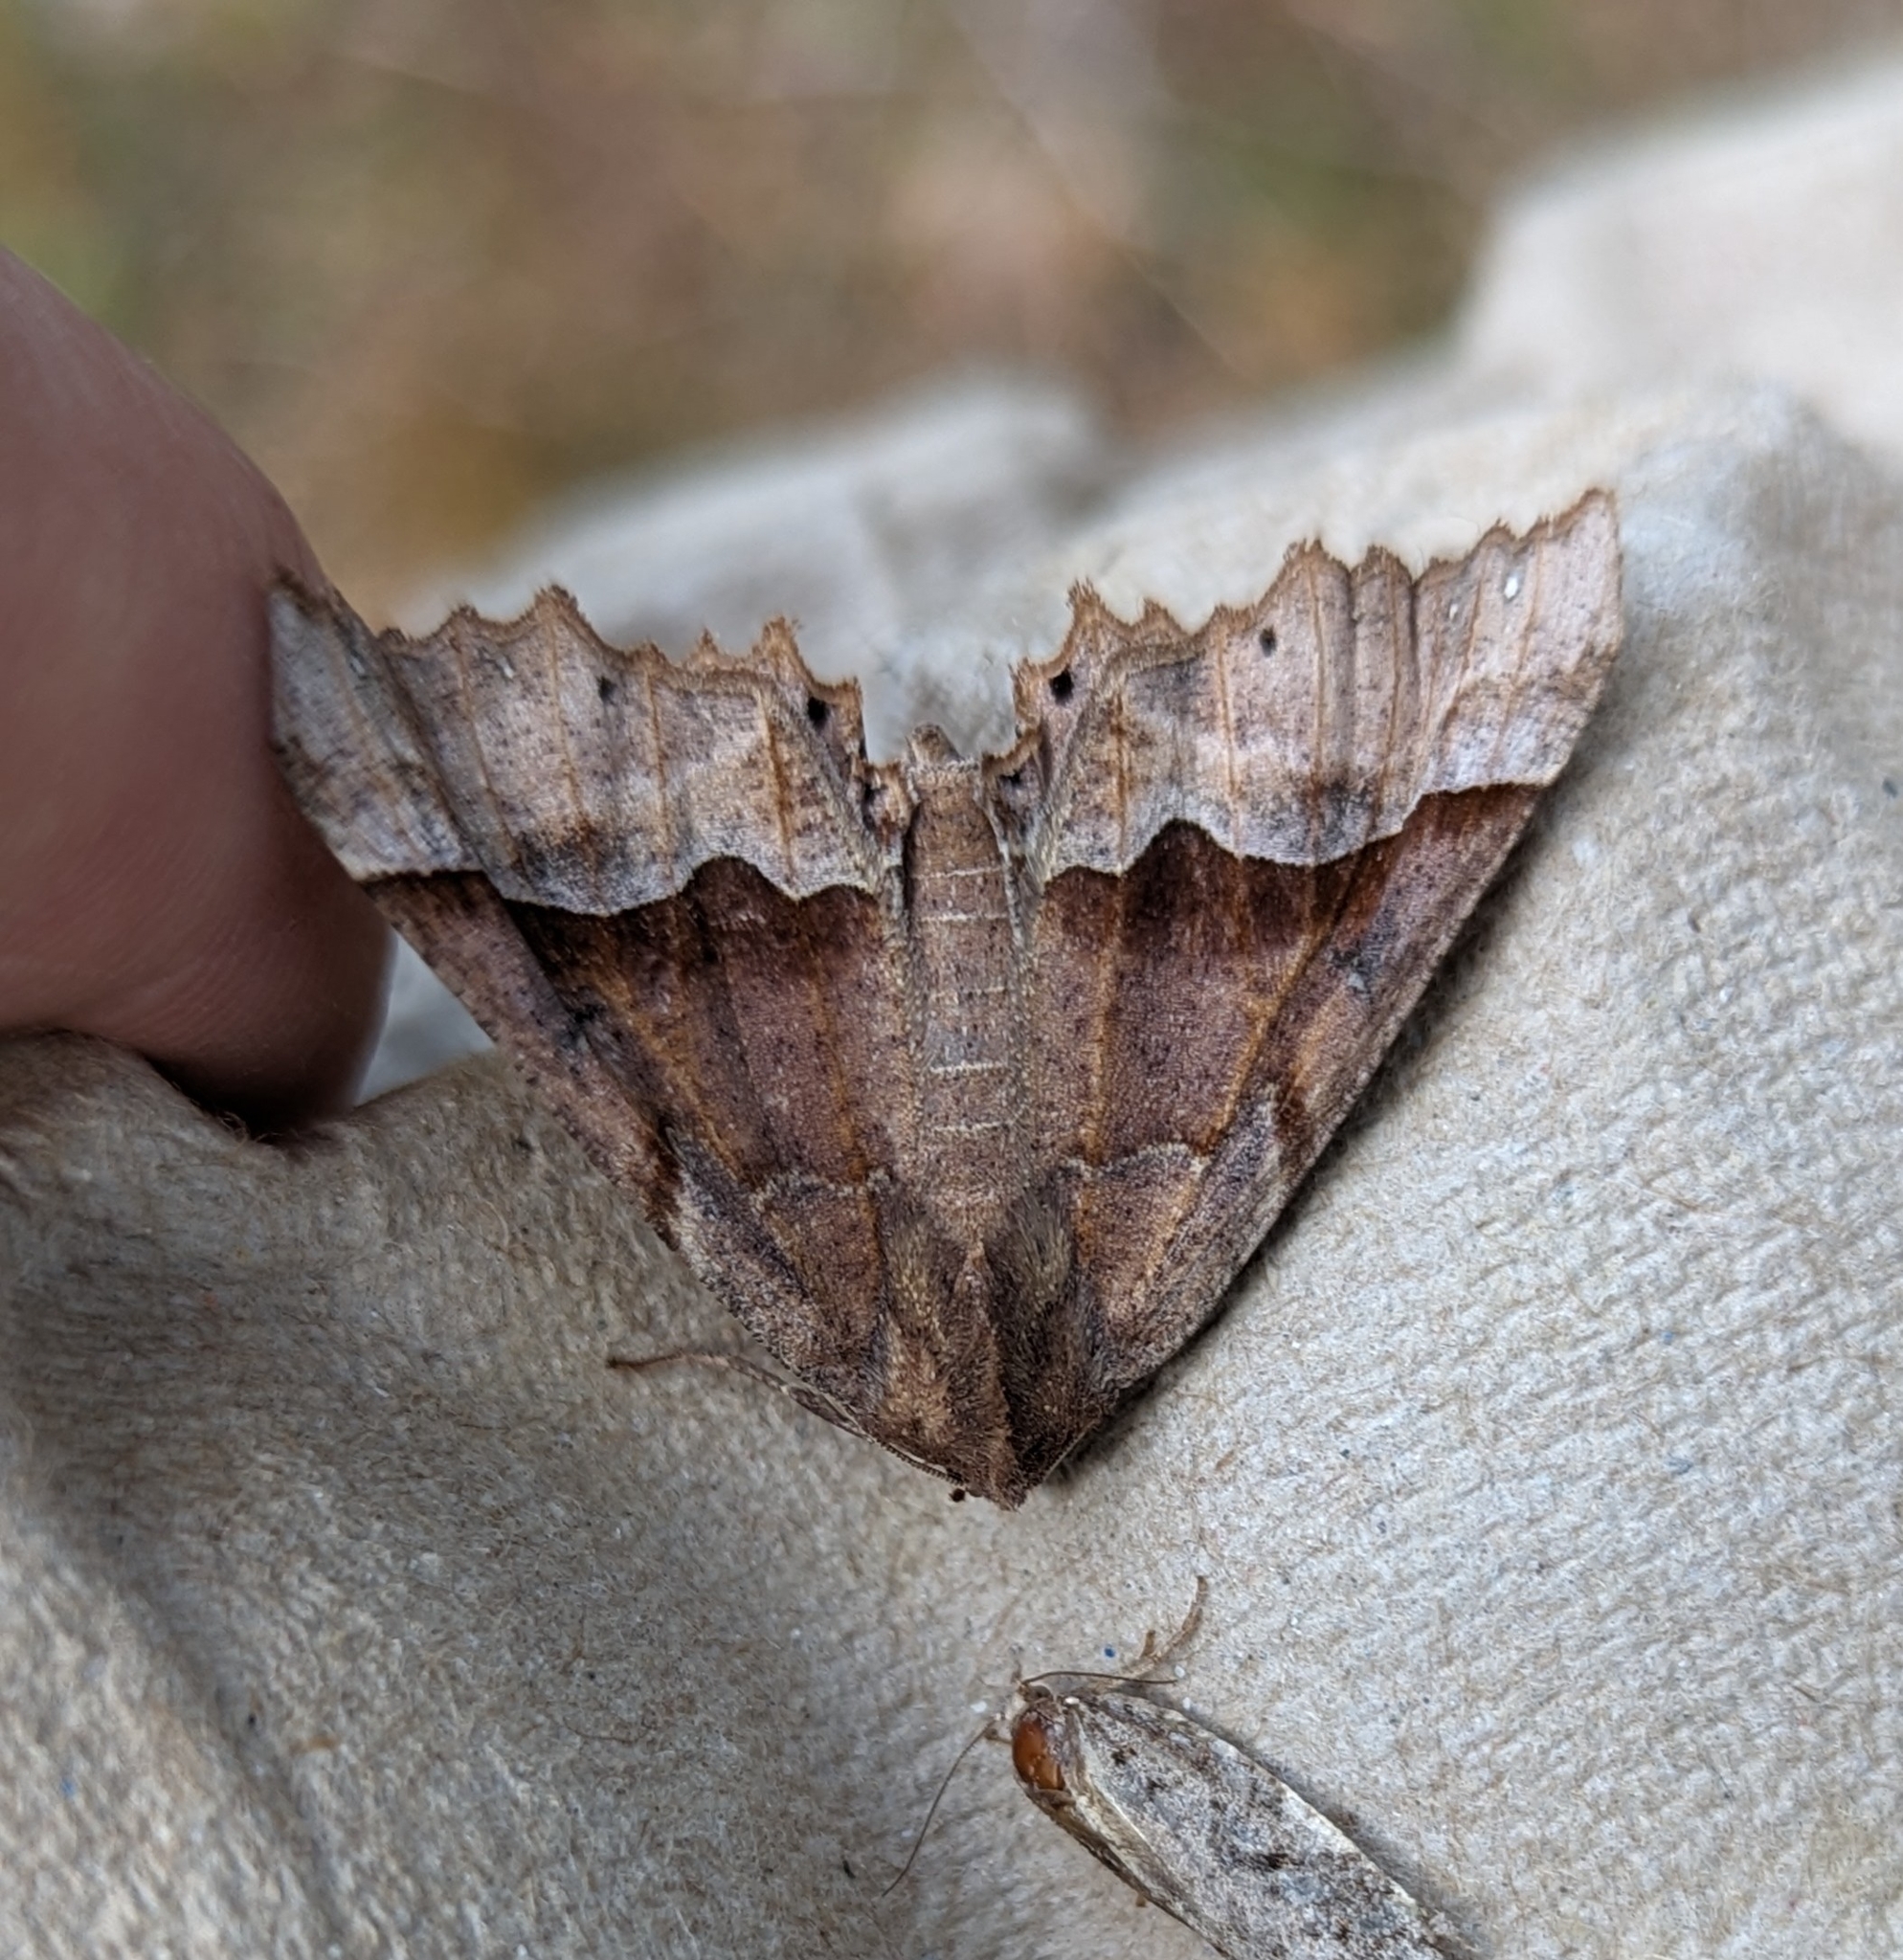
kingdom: Animalia
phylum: Arthropoda
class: Insecta
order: Lepidoptera
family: Geometridae
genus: Pero
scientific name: Pero mizon
